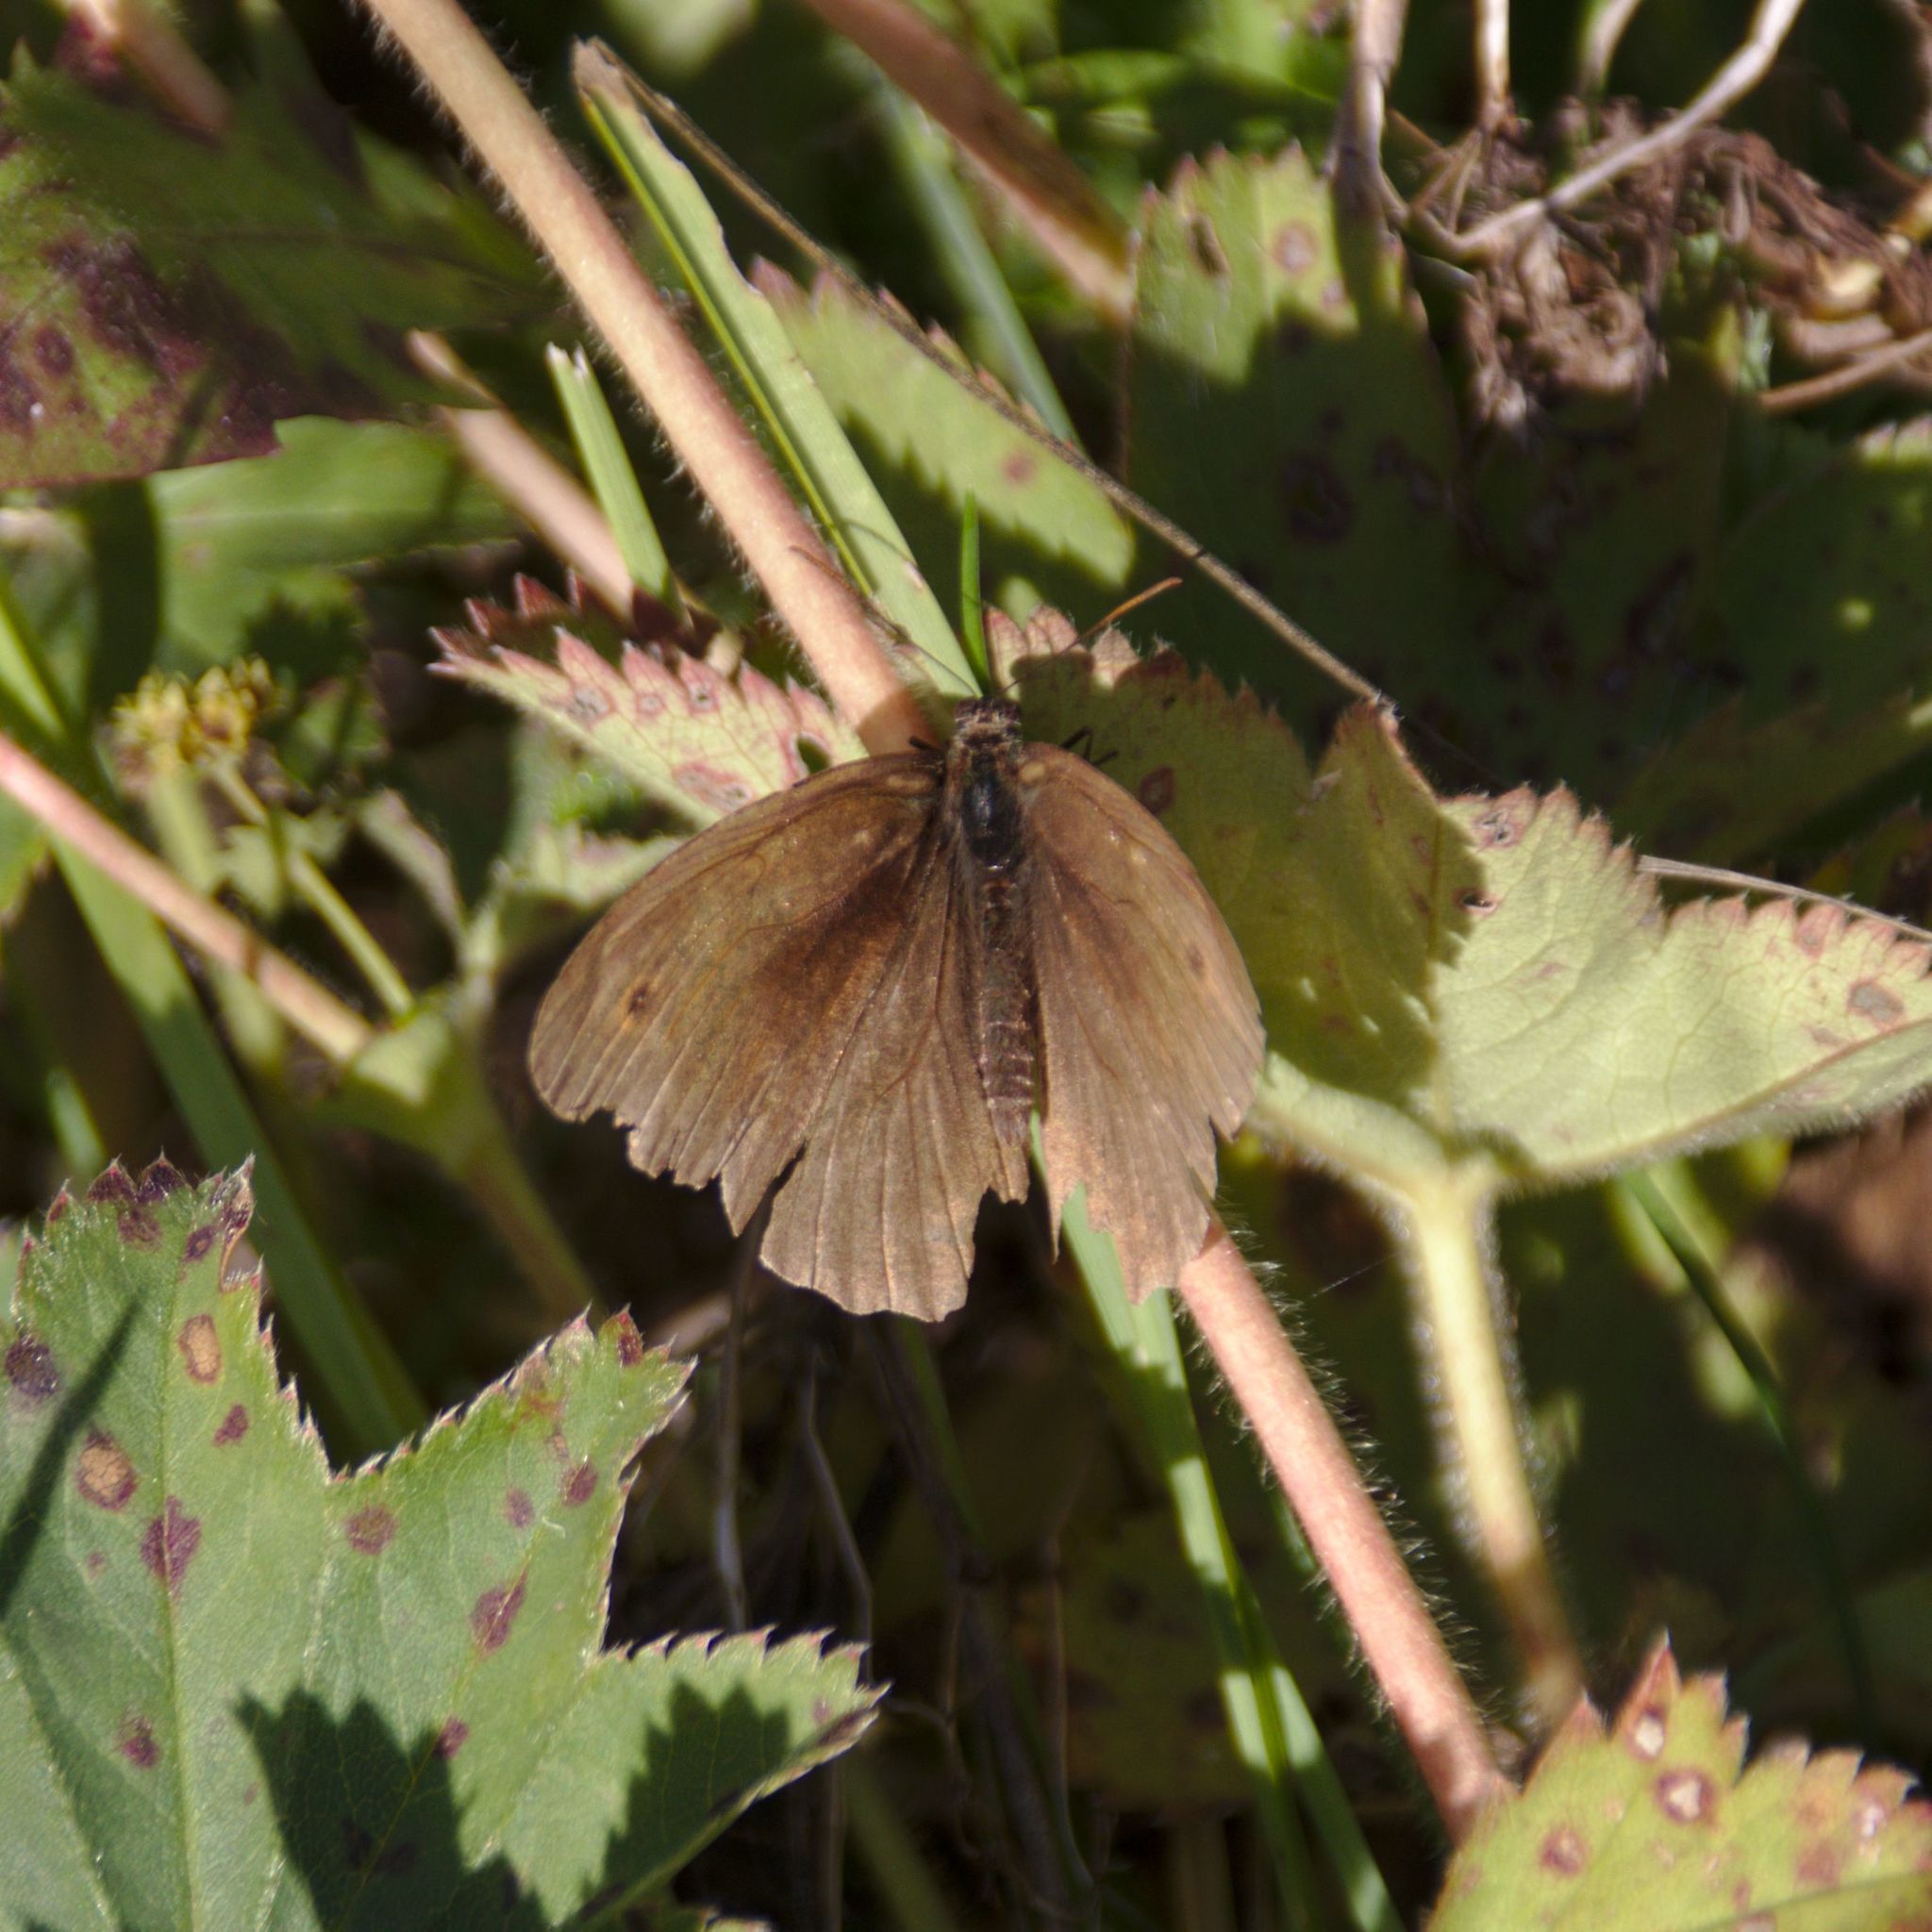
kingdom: Animalia
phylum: Arthropoda
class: Insecta
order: Lepidoptera
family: Nymphalidae
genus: Maniola
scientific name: Maniola jurtina
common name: Meadow brown
